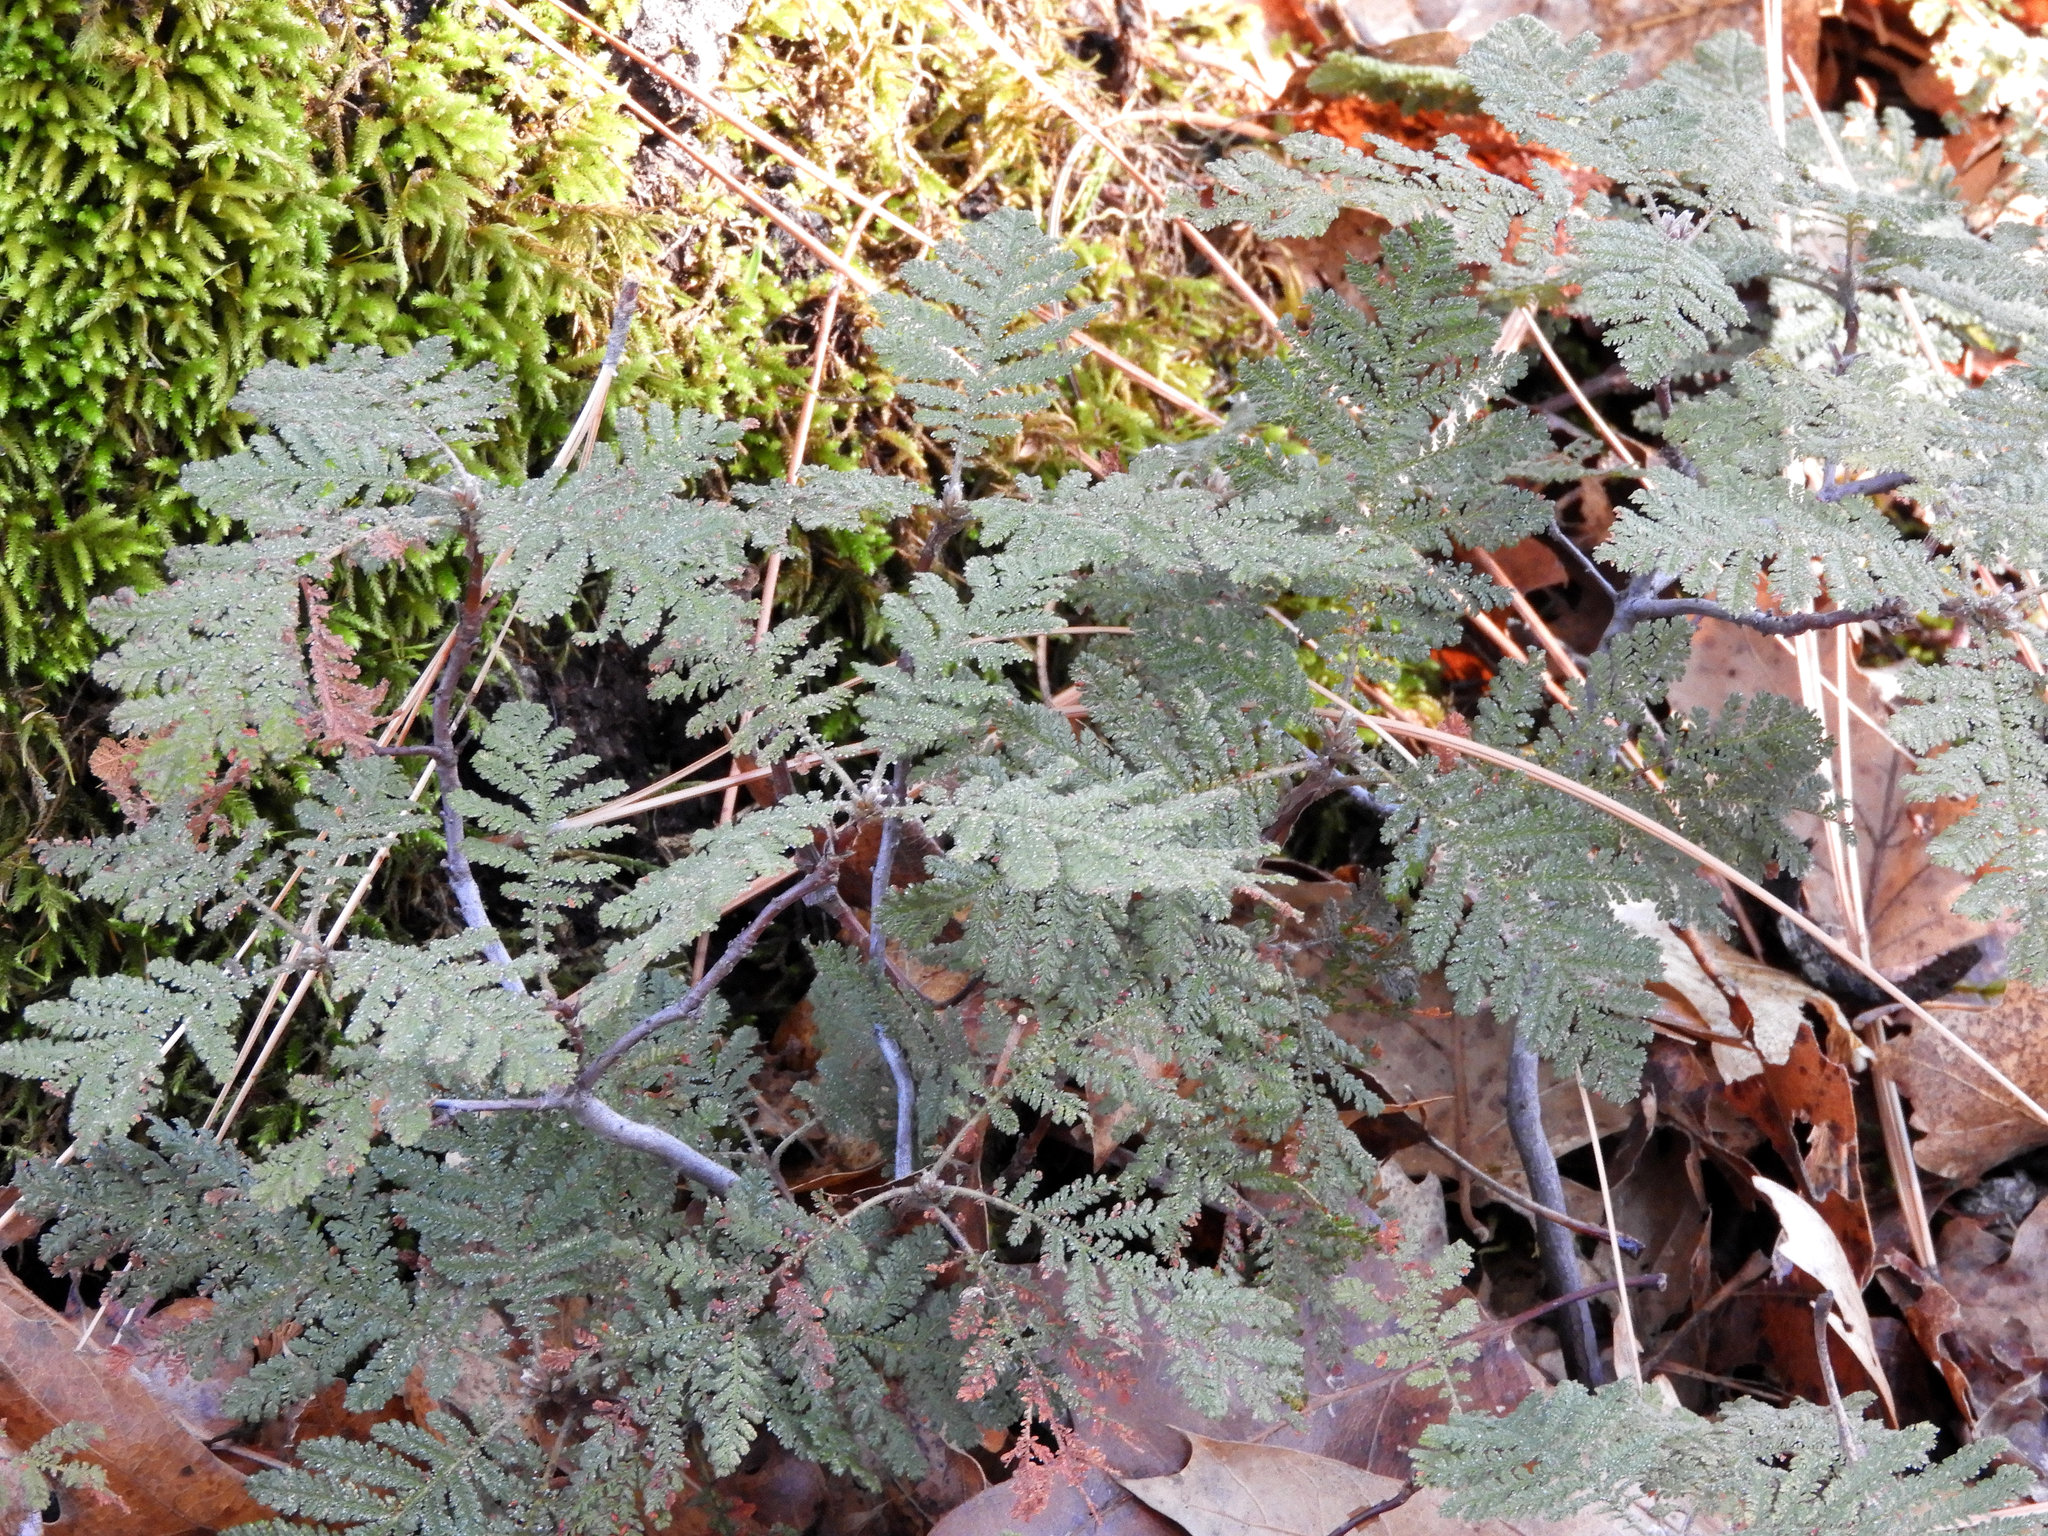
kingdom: Plantae
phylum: Tracheophyta
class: Magnoliopsida
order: Rosales
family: Rosaceae
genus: Chamaebatia
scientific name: Chamaebatia foliolosa
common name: Mountain misery
